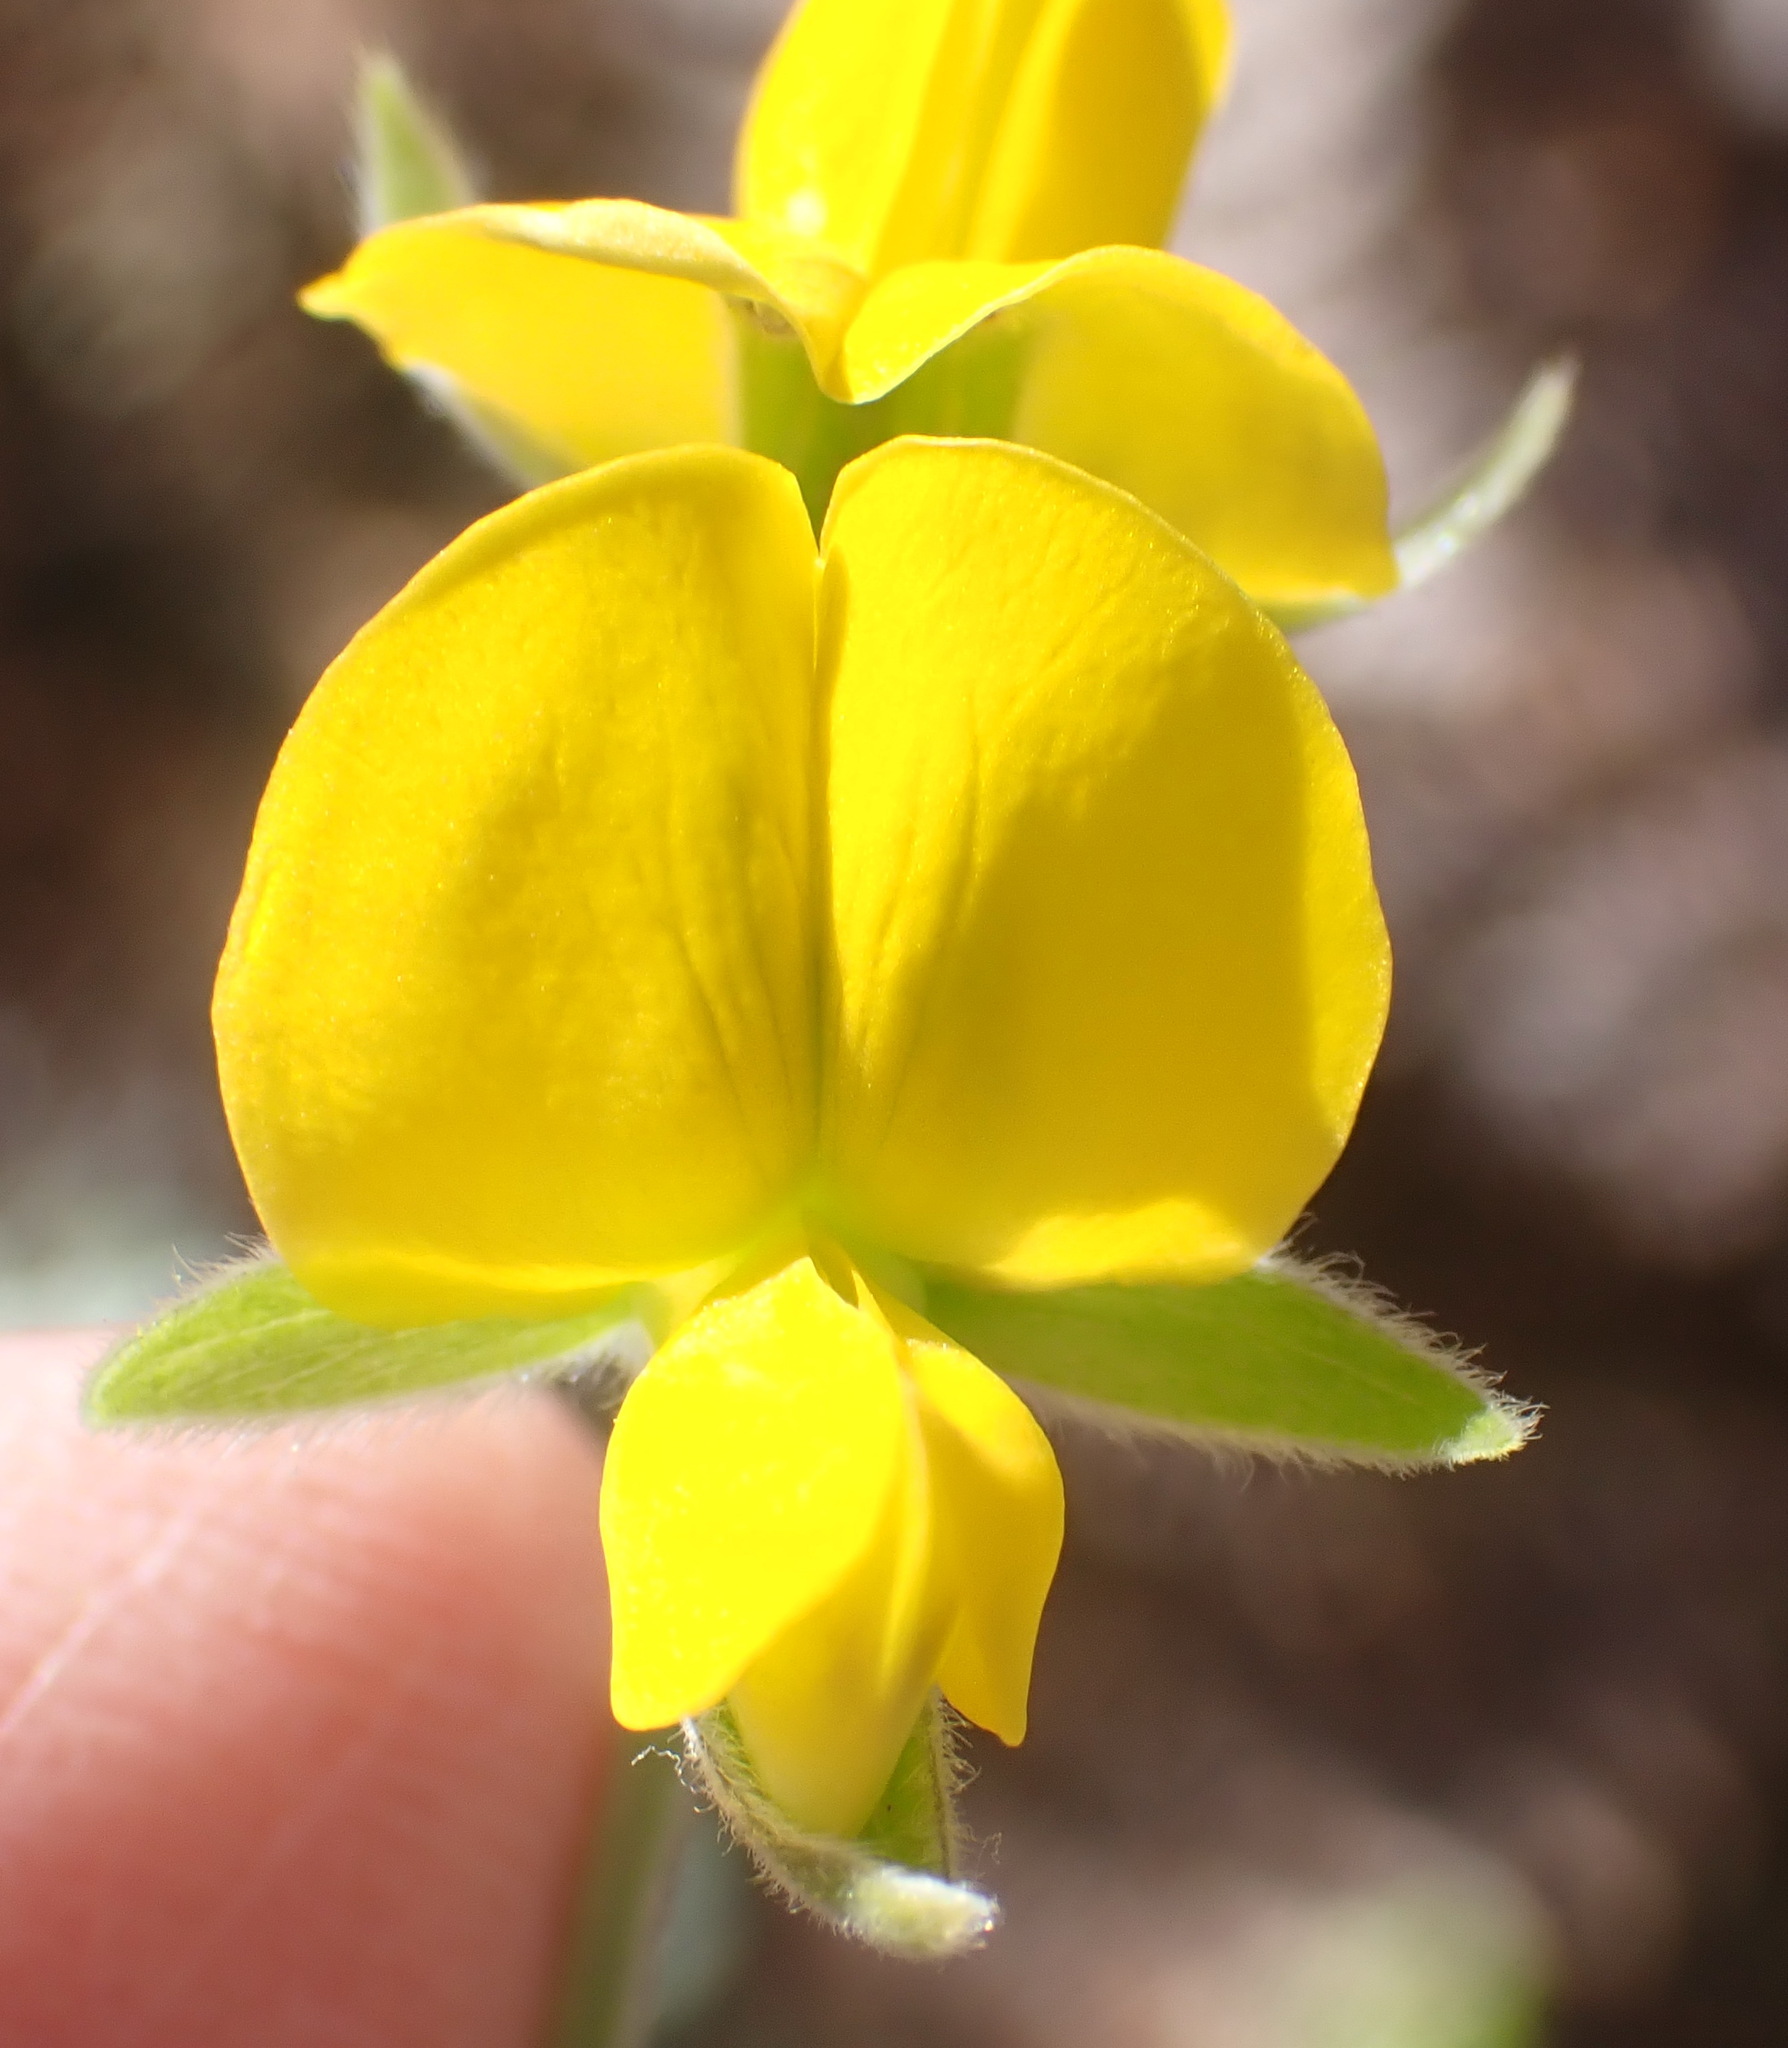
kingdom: Plantae
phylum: Tracheophyta
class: Magnoliopsida
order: Fabales
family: Fabaceae
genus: Rhynchosia
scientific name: Rhynchosia chrysoscias
